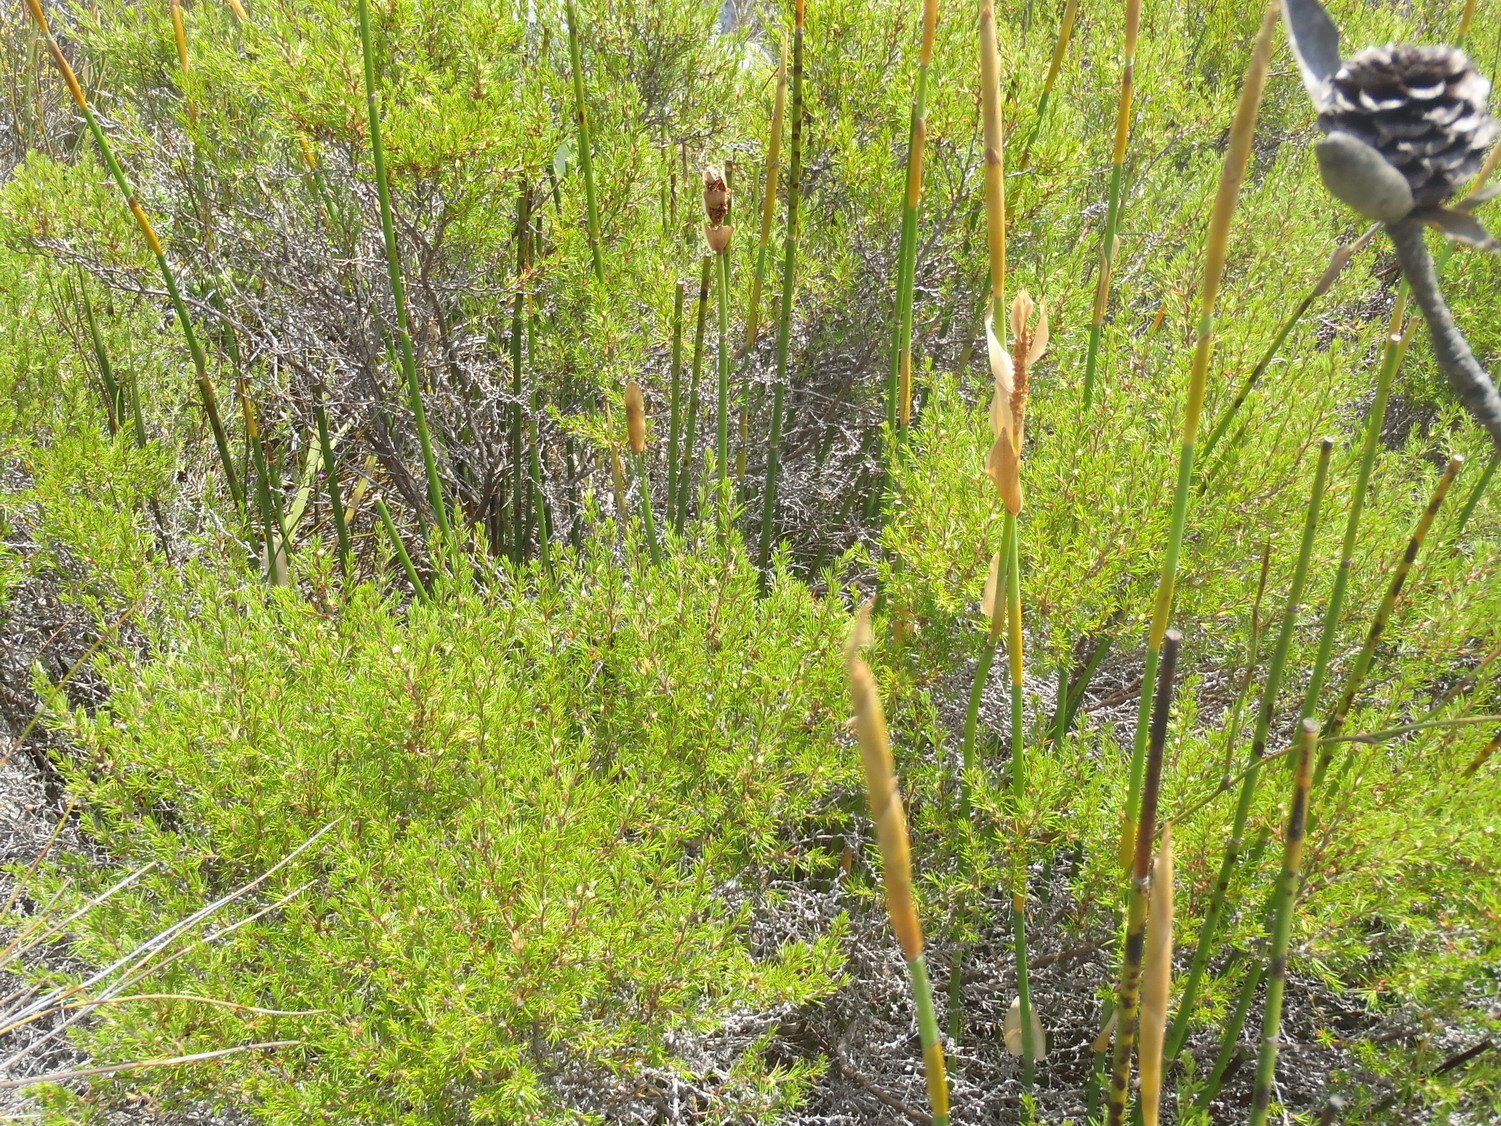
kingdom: Plantae
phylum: Tracheophyta
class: Magnoliopsida
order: Rosales
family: Rosaceae
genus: Cliffortia
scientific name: Cliffortia atrata
